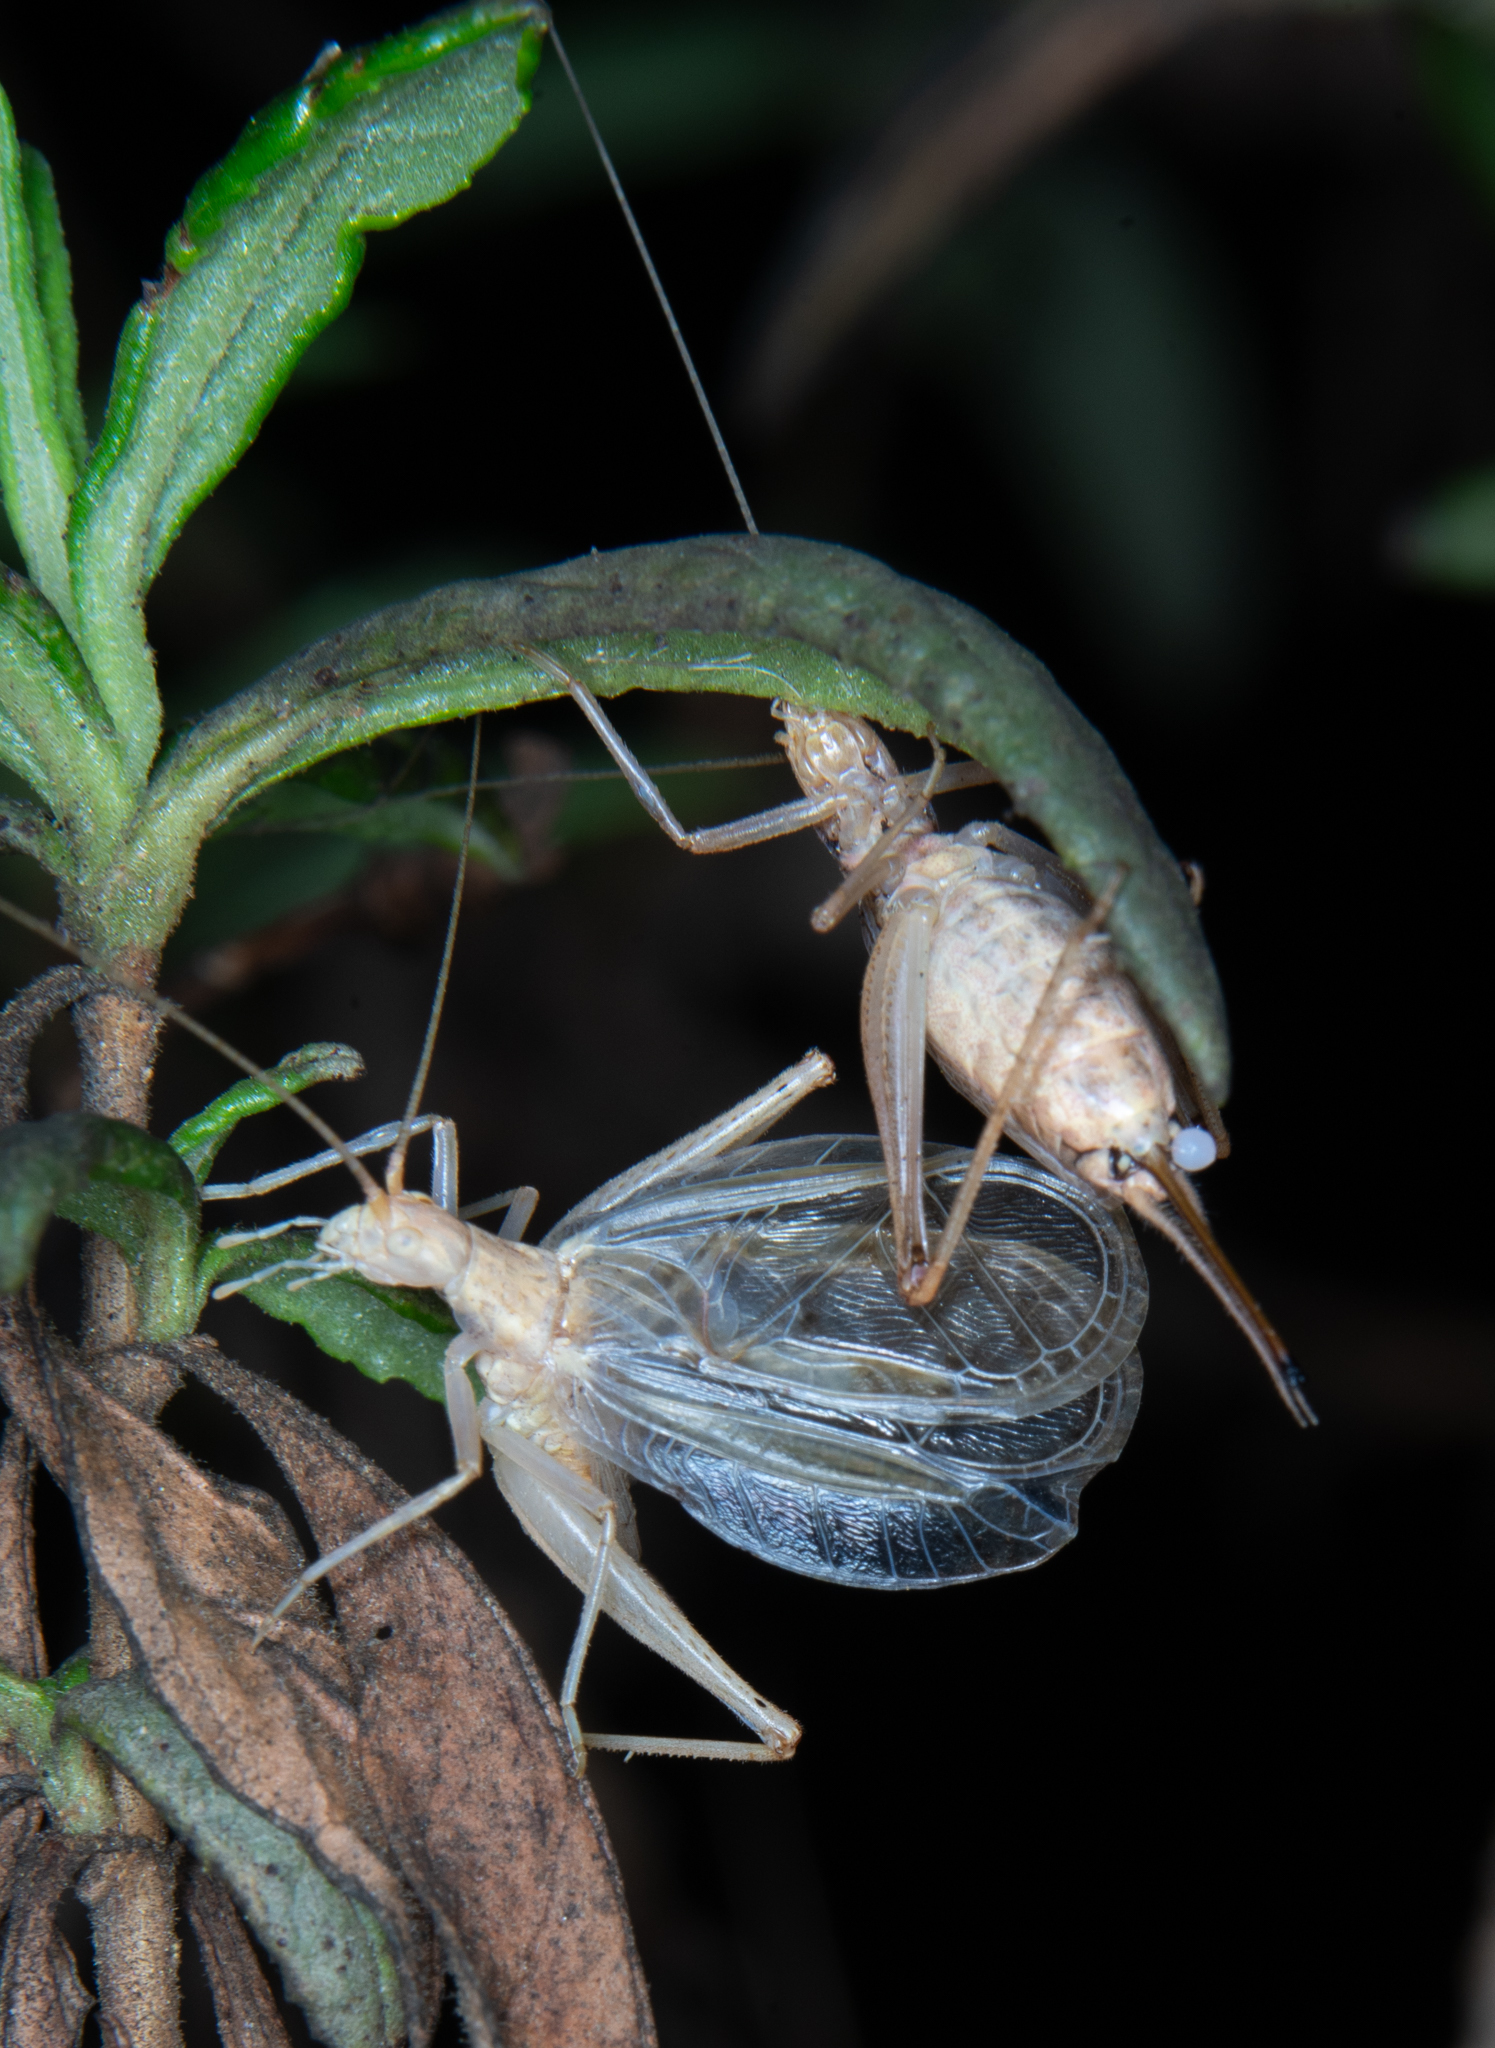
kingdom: Animalia
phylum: Arthropoda
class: Insecta
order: Orthoptera
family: Gryllidae
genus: Oecanthus
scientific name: Oecanthus californicus
